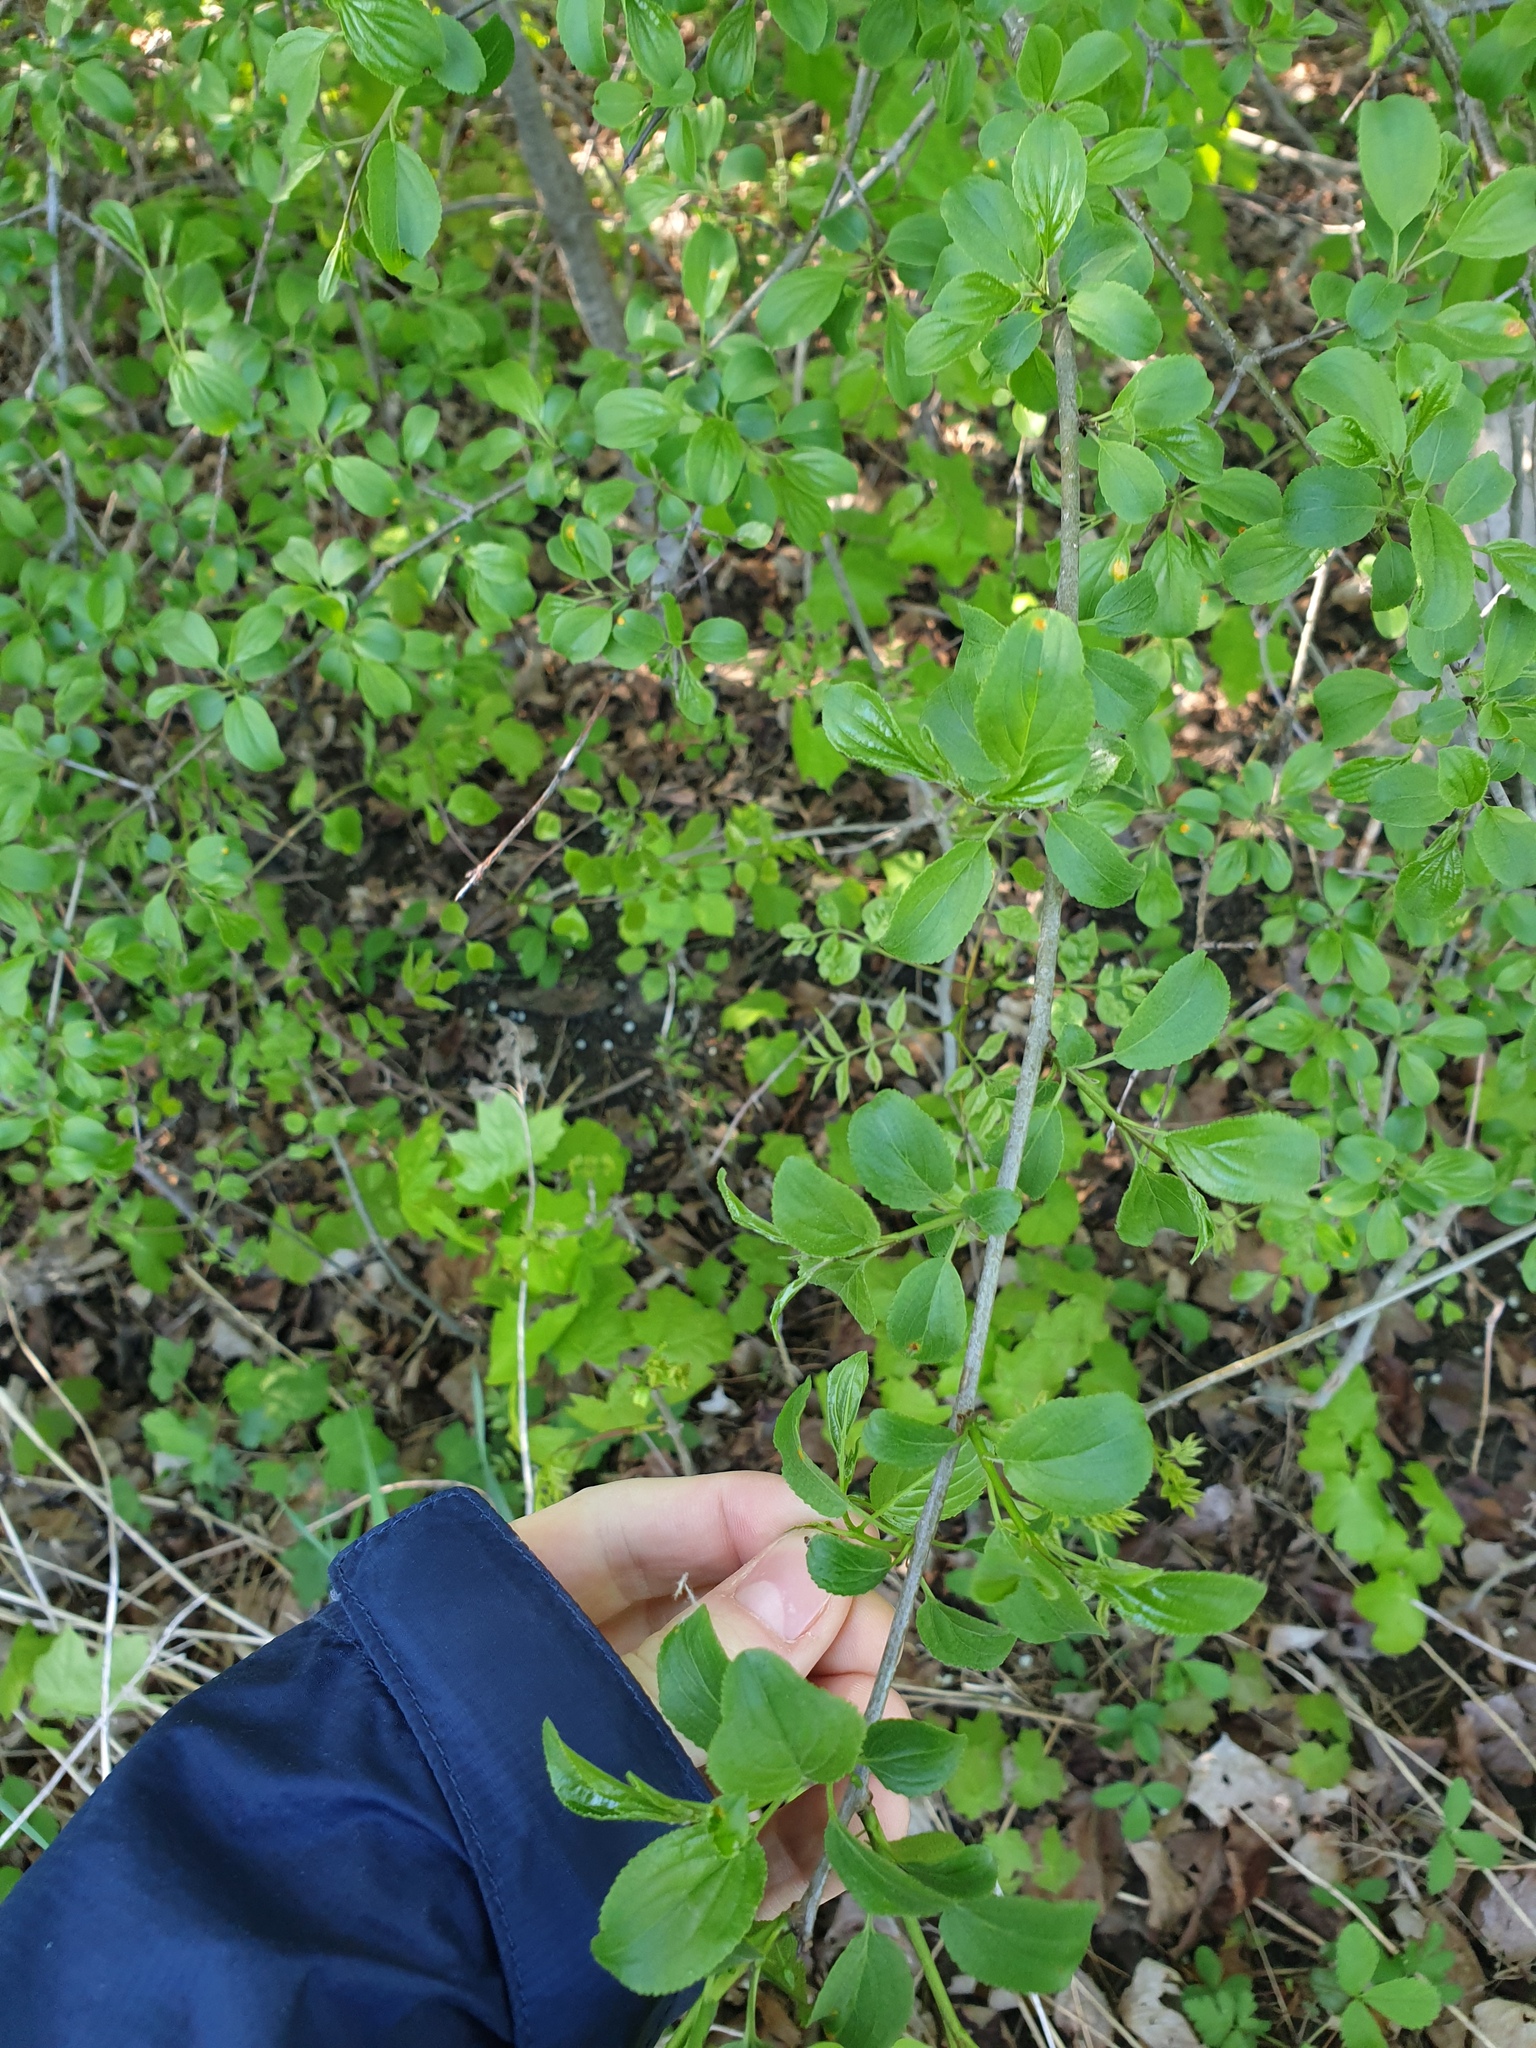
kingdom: Plantae
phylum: Tracheophyta
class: Magnoliopsida
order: Rosales
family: Rhamnaceae
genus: Rhamnus
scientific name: Rhamnus cathartica
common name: Common buckthorn
